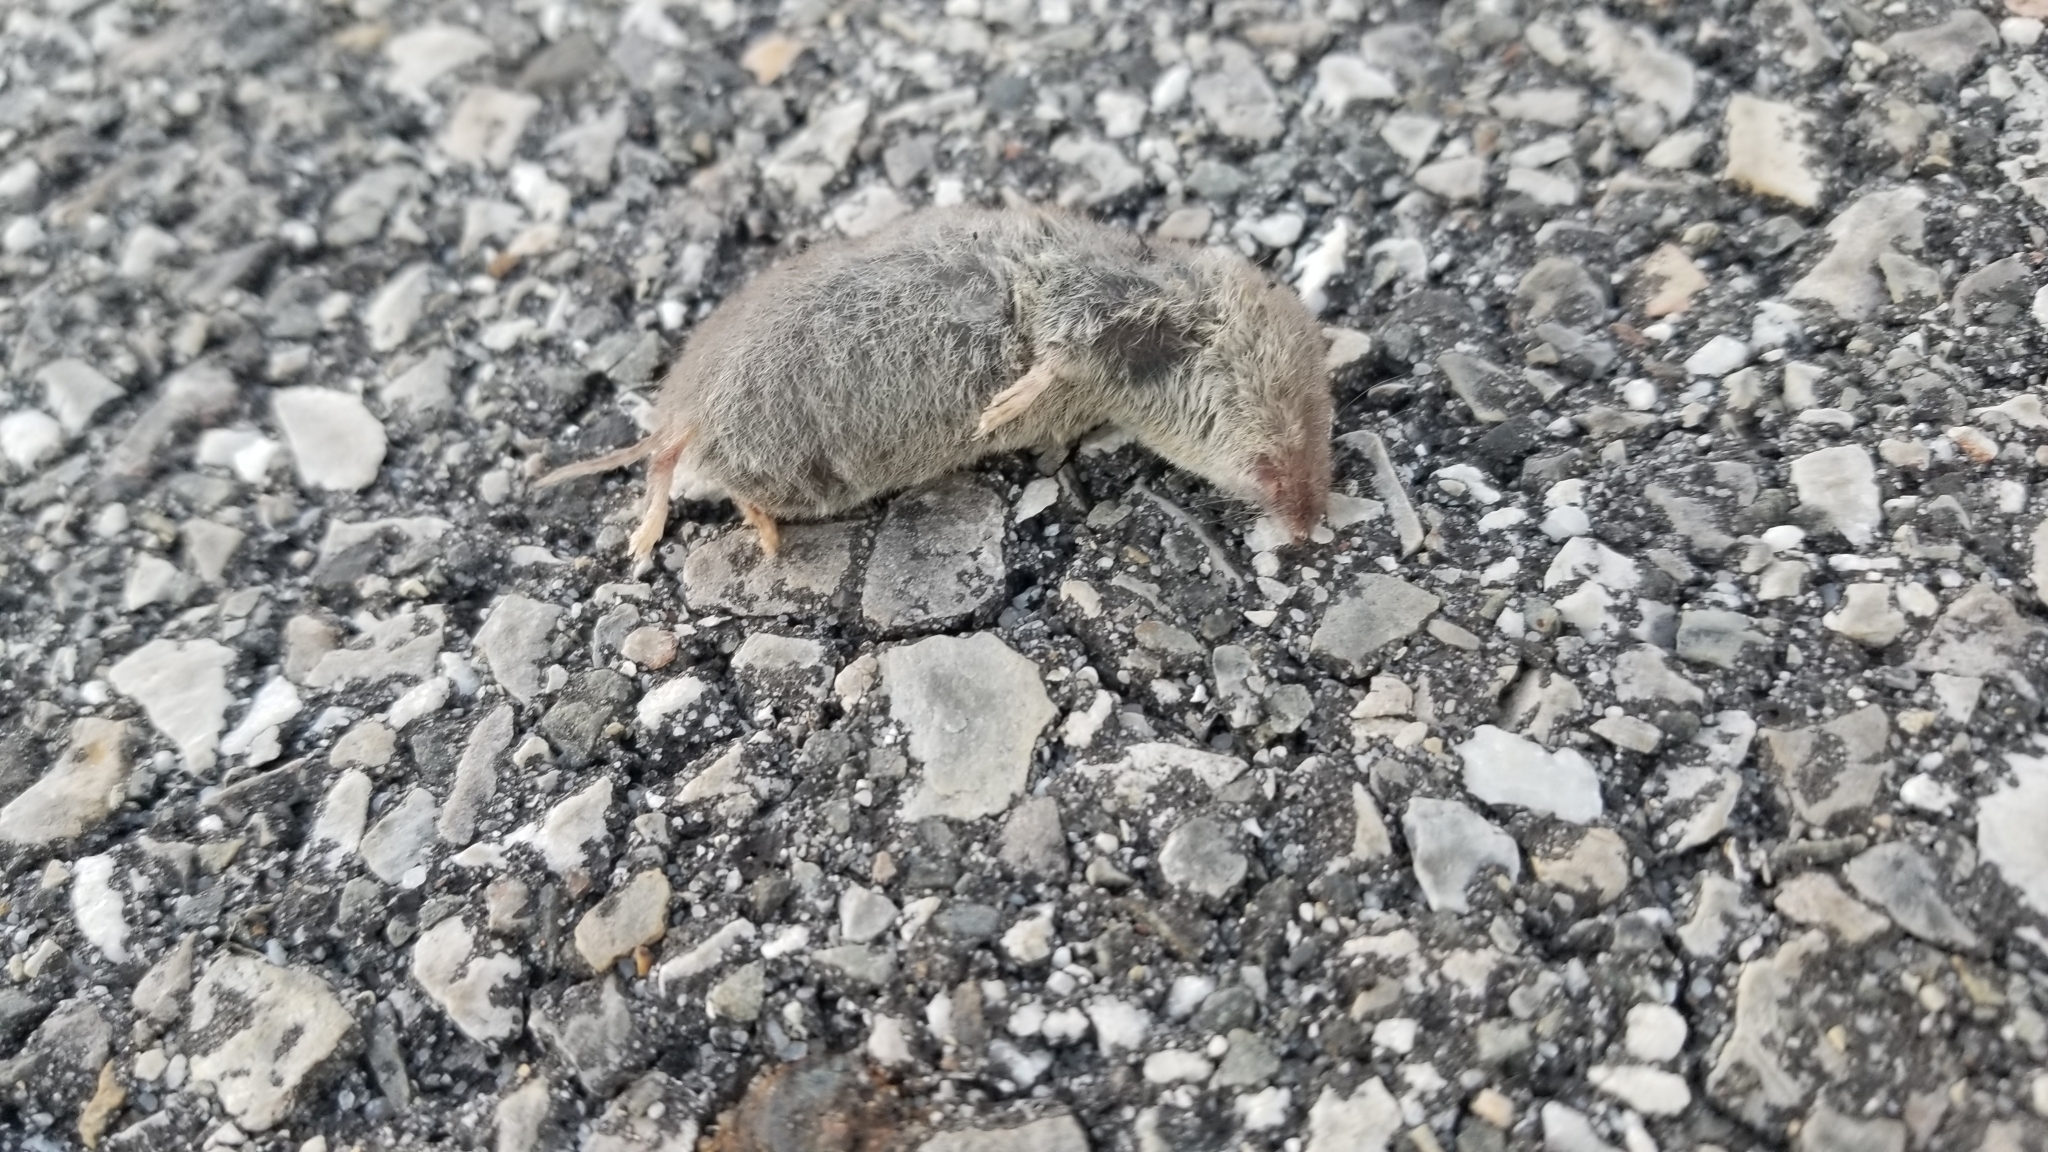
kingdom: Animalia
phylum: Chordata
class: Mammalia
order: Soricomorpha
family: Soricidae
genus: Blarina
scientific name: Blarina brevicauda
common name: Northern short-tailed shrew
